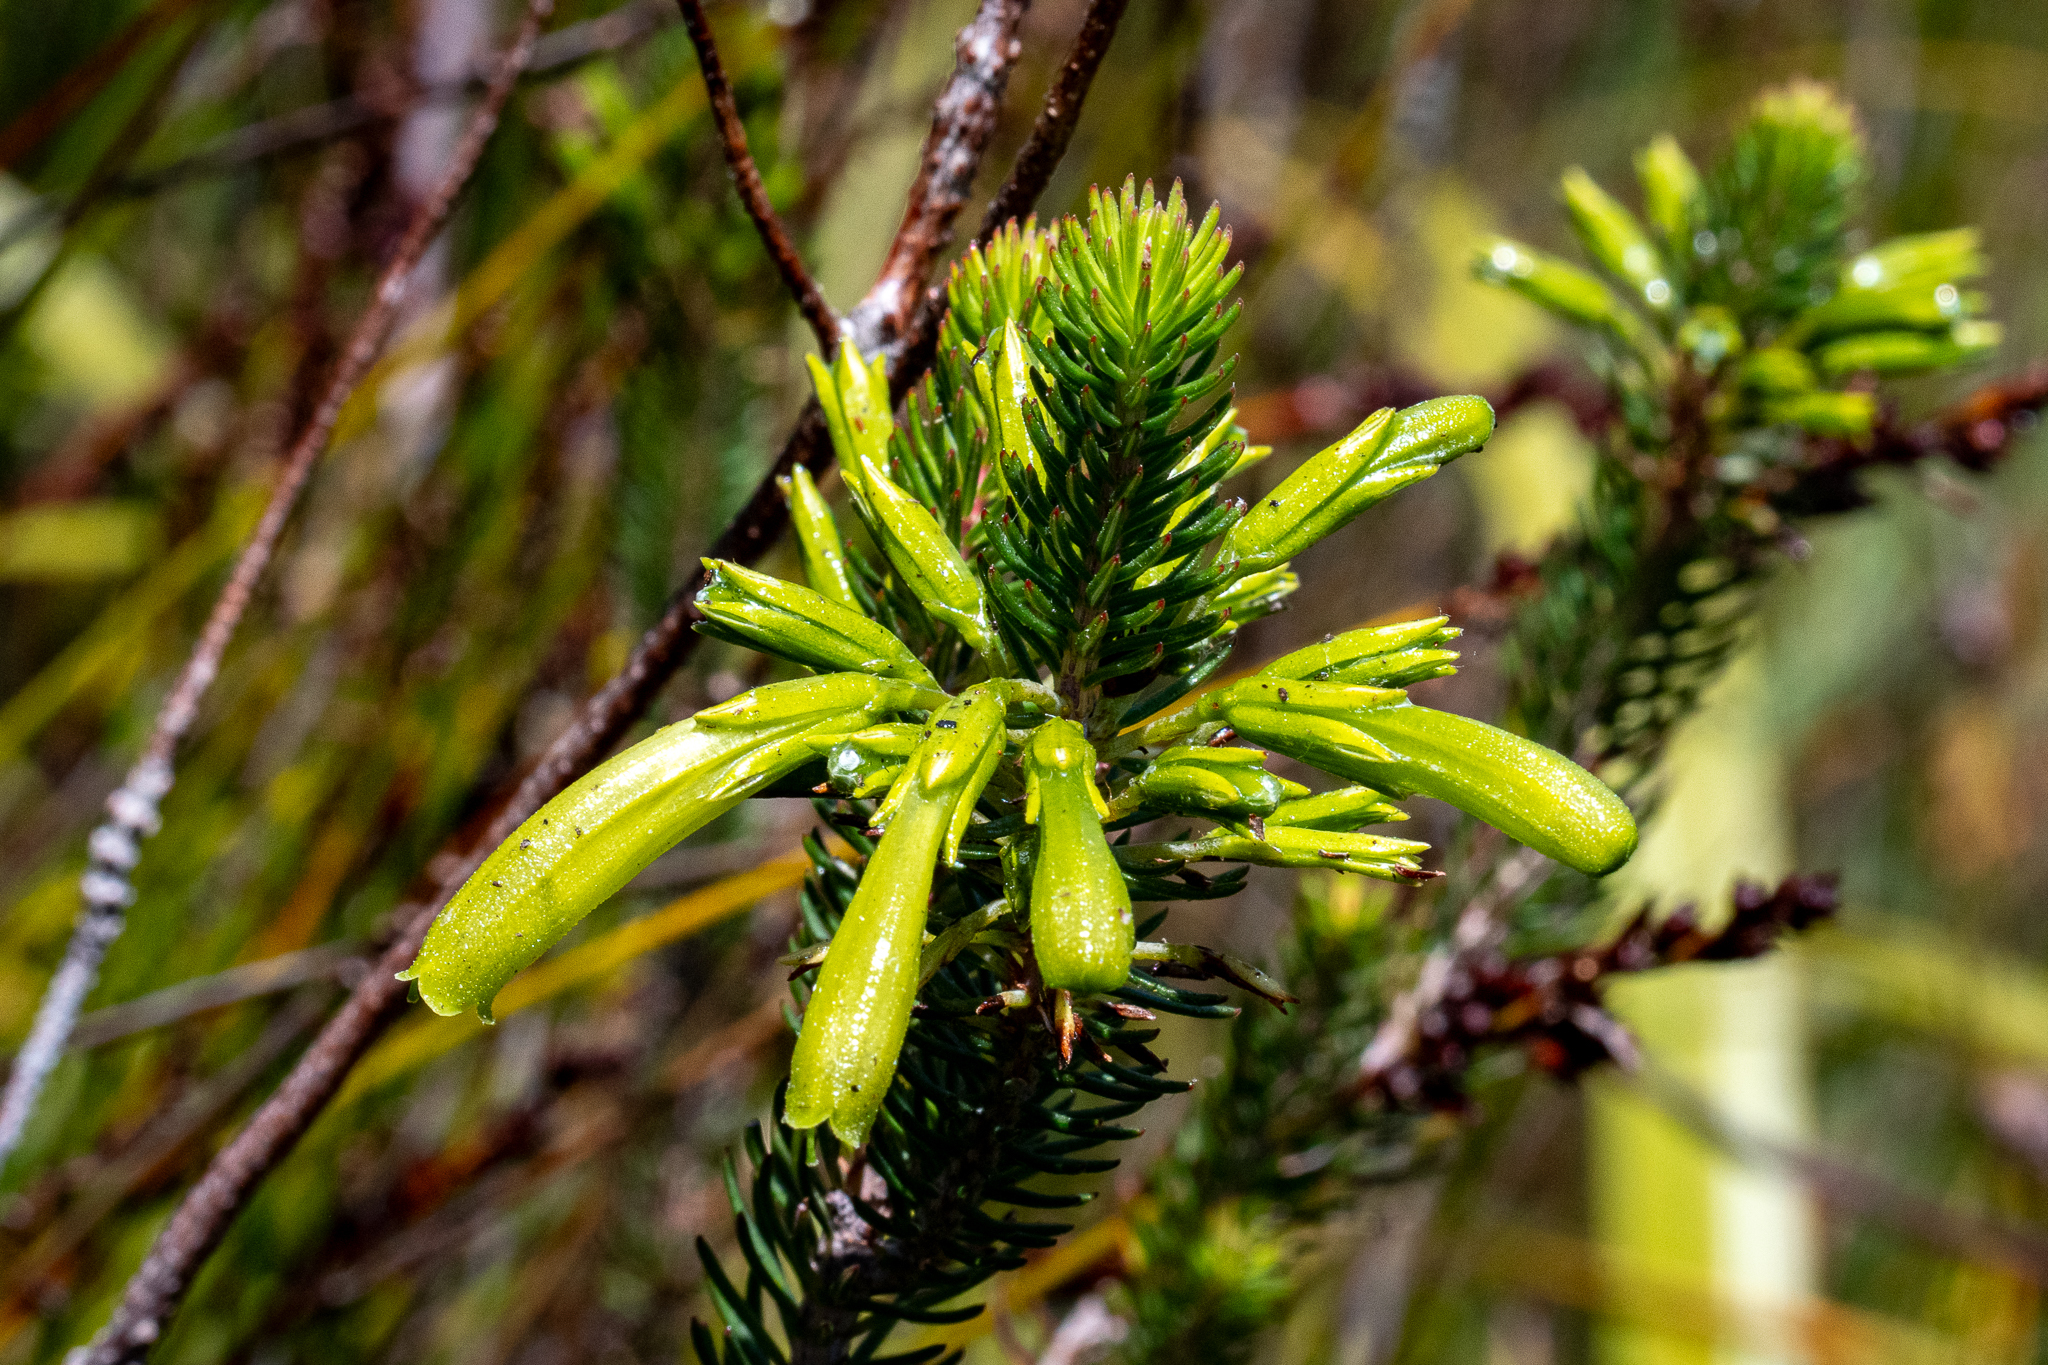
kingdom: Plantae
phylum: Tracheophyta
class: Magnoliopsida
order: Ericales
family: Ericaceae
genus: Erica
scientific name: Erica thomae
